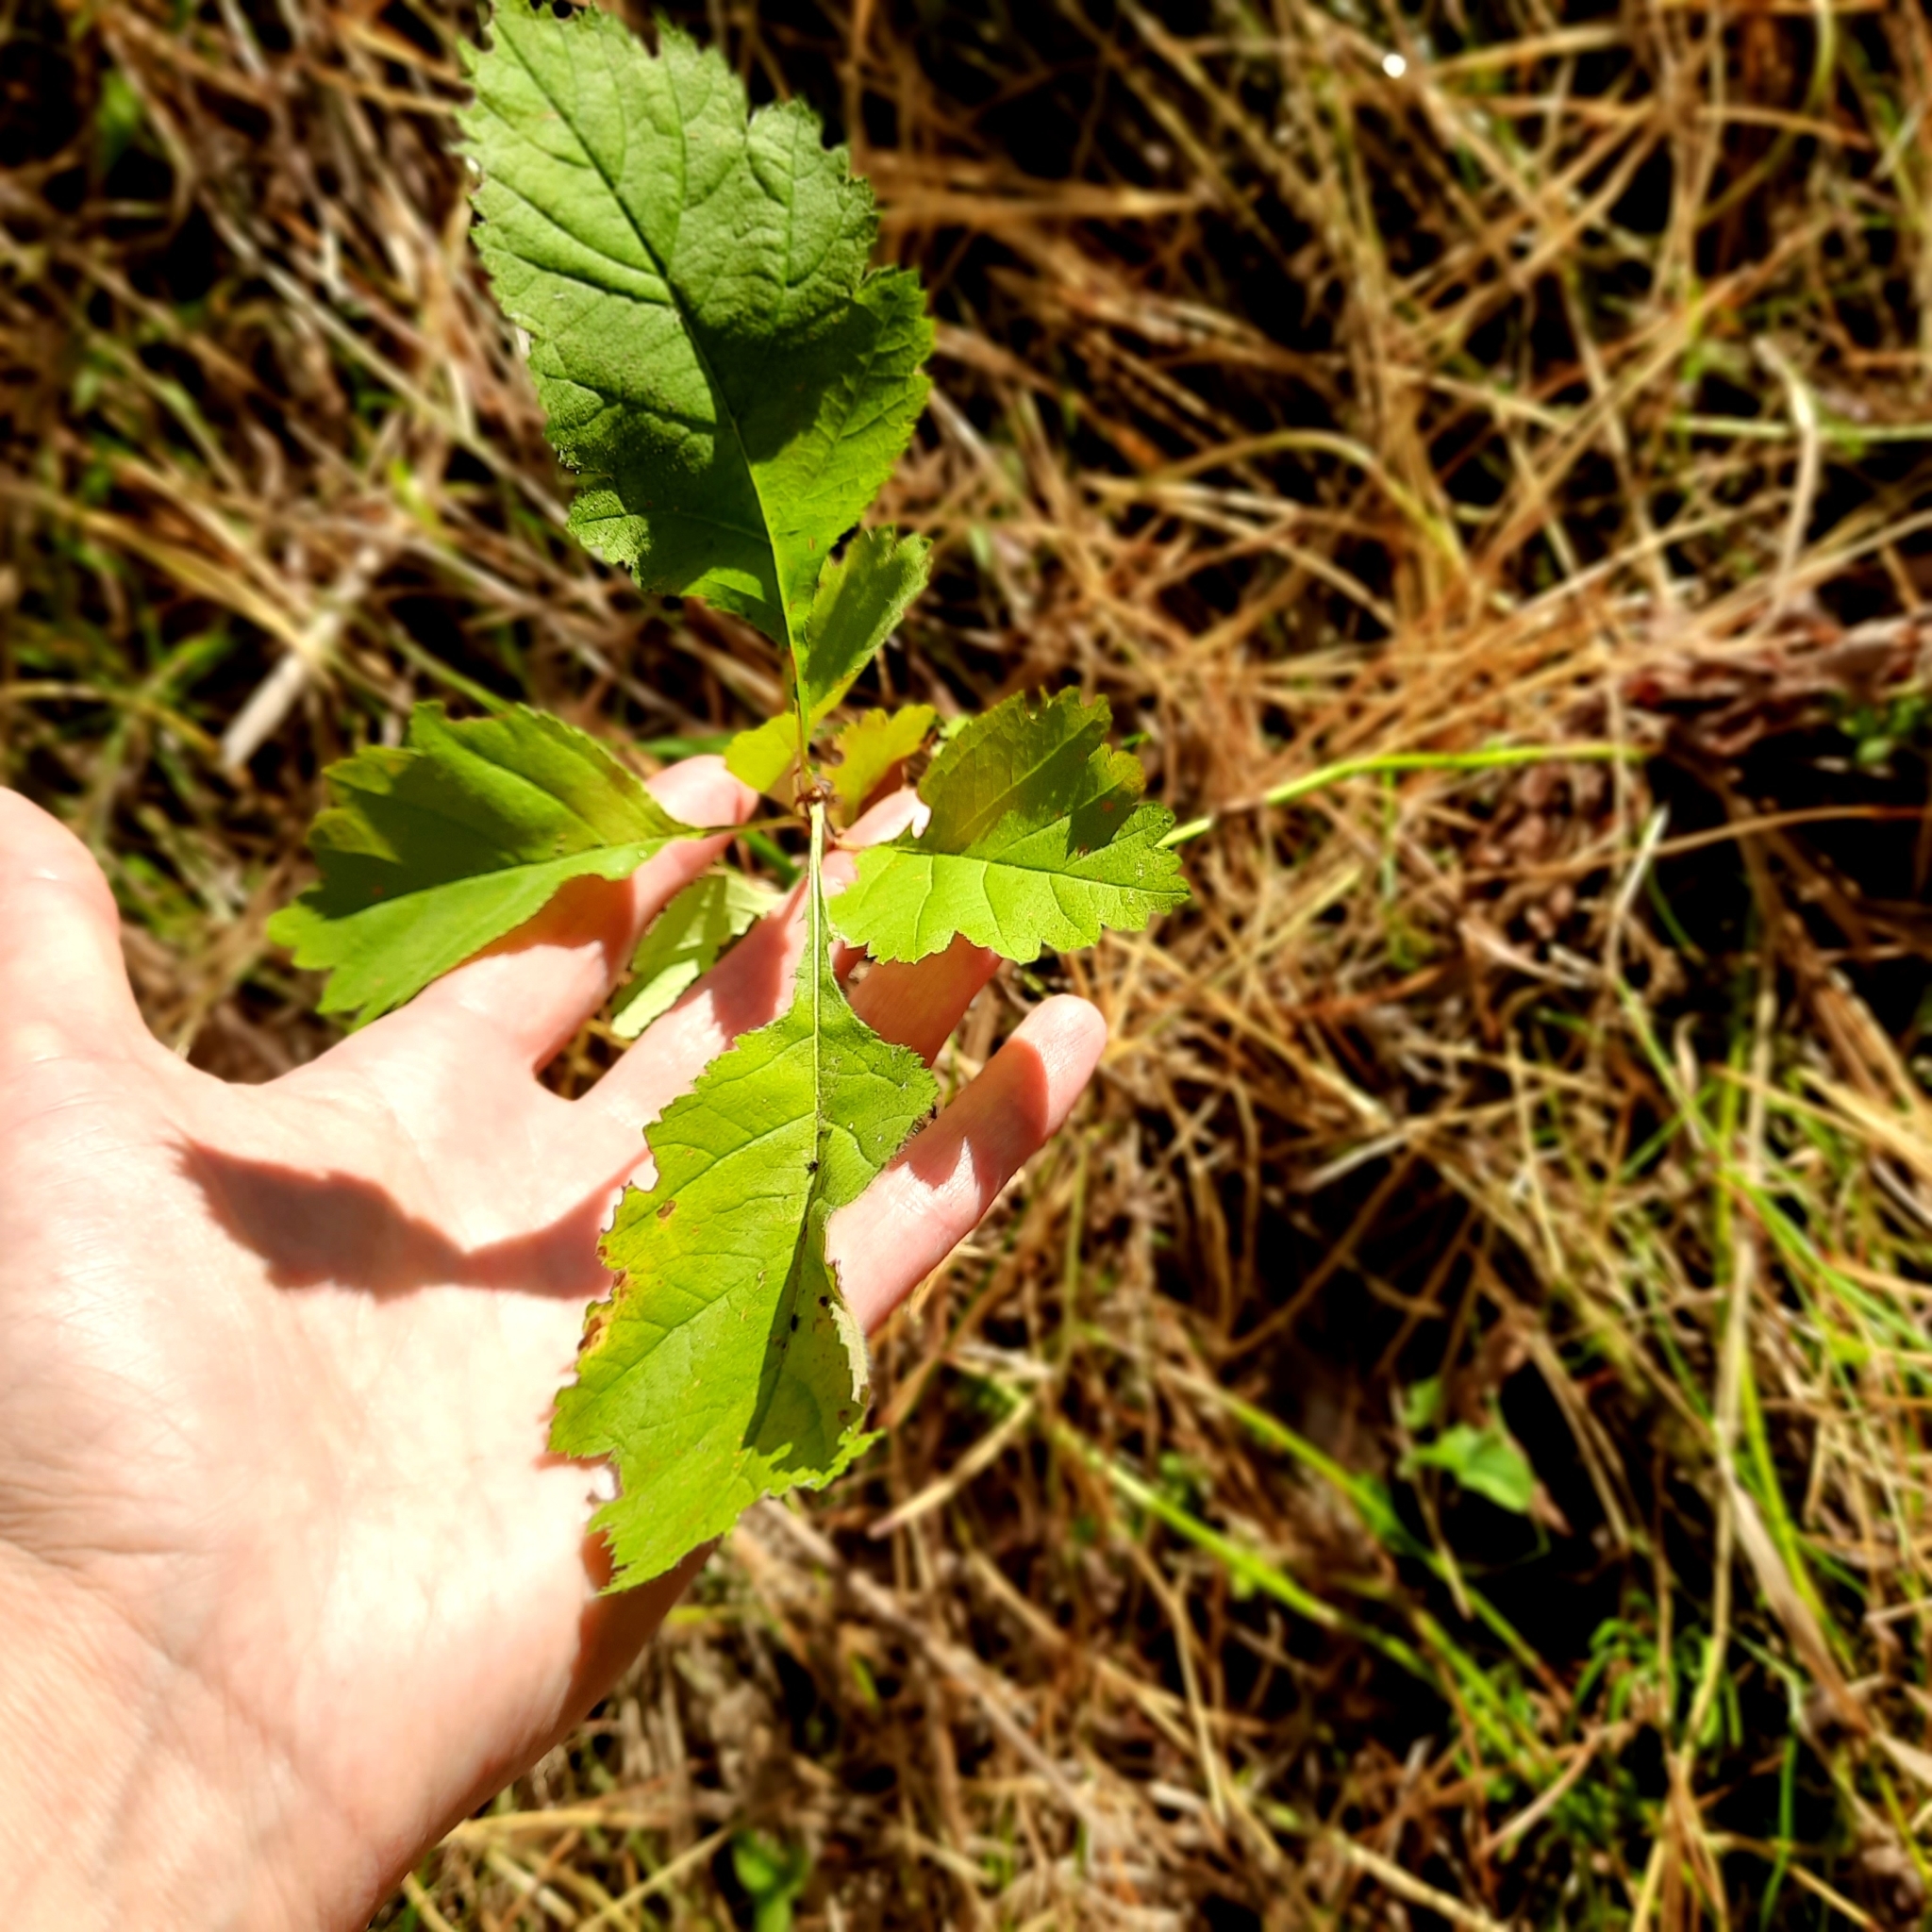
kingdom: Plantae
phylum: Tracheophyta
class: Magnoliopsida
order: Rosales
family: Rosaceae
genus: Crataegus
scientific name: Crataegus sanguinea
